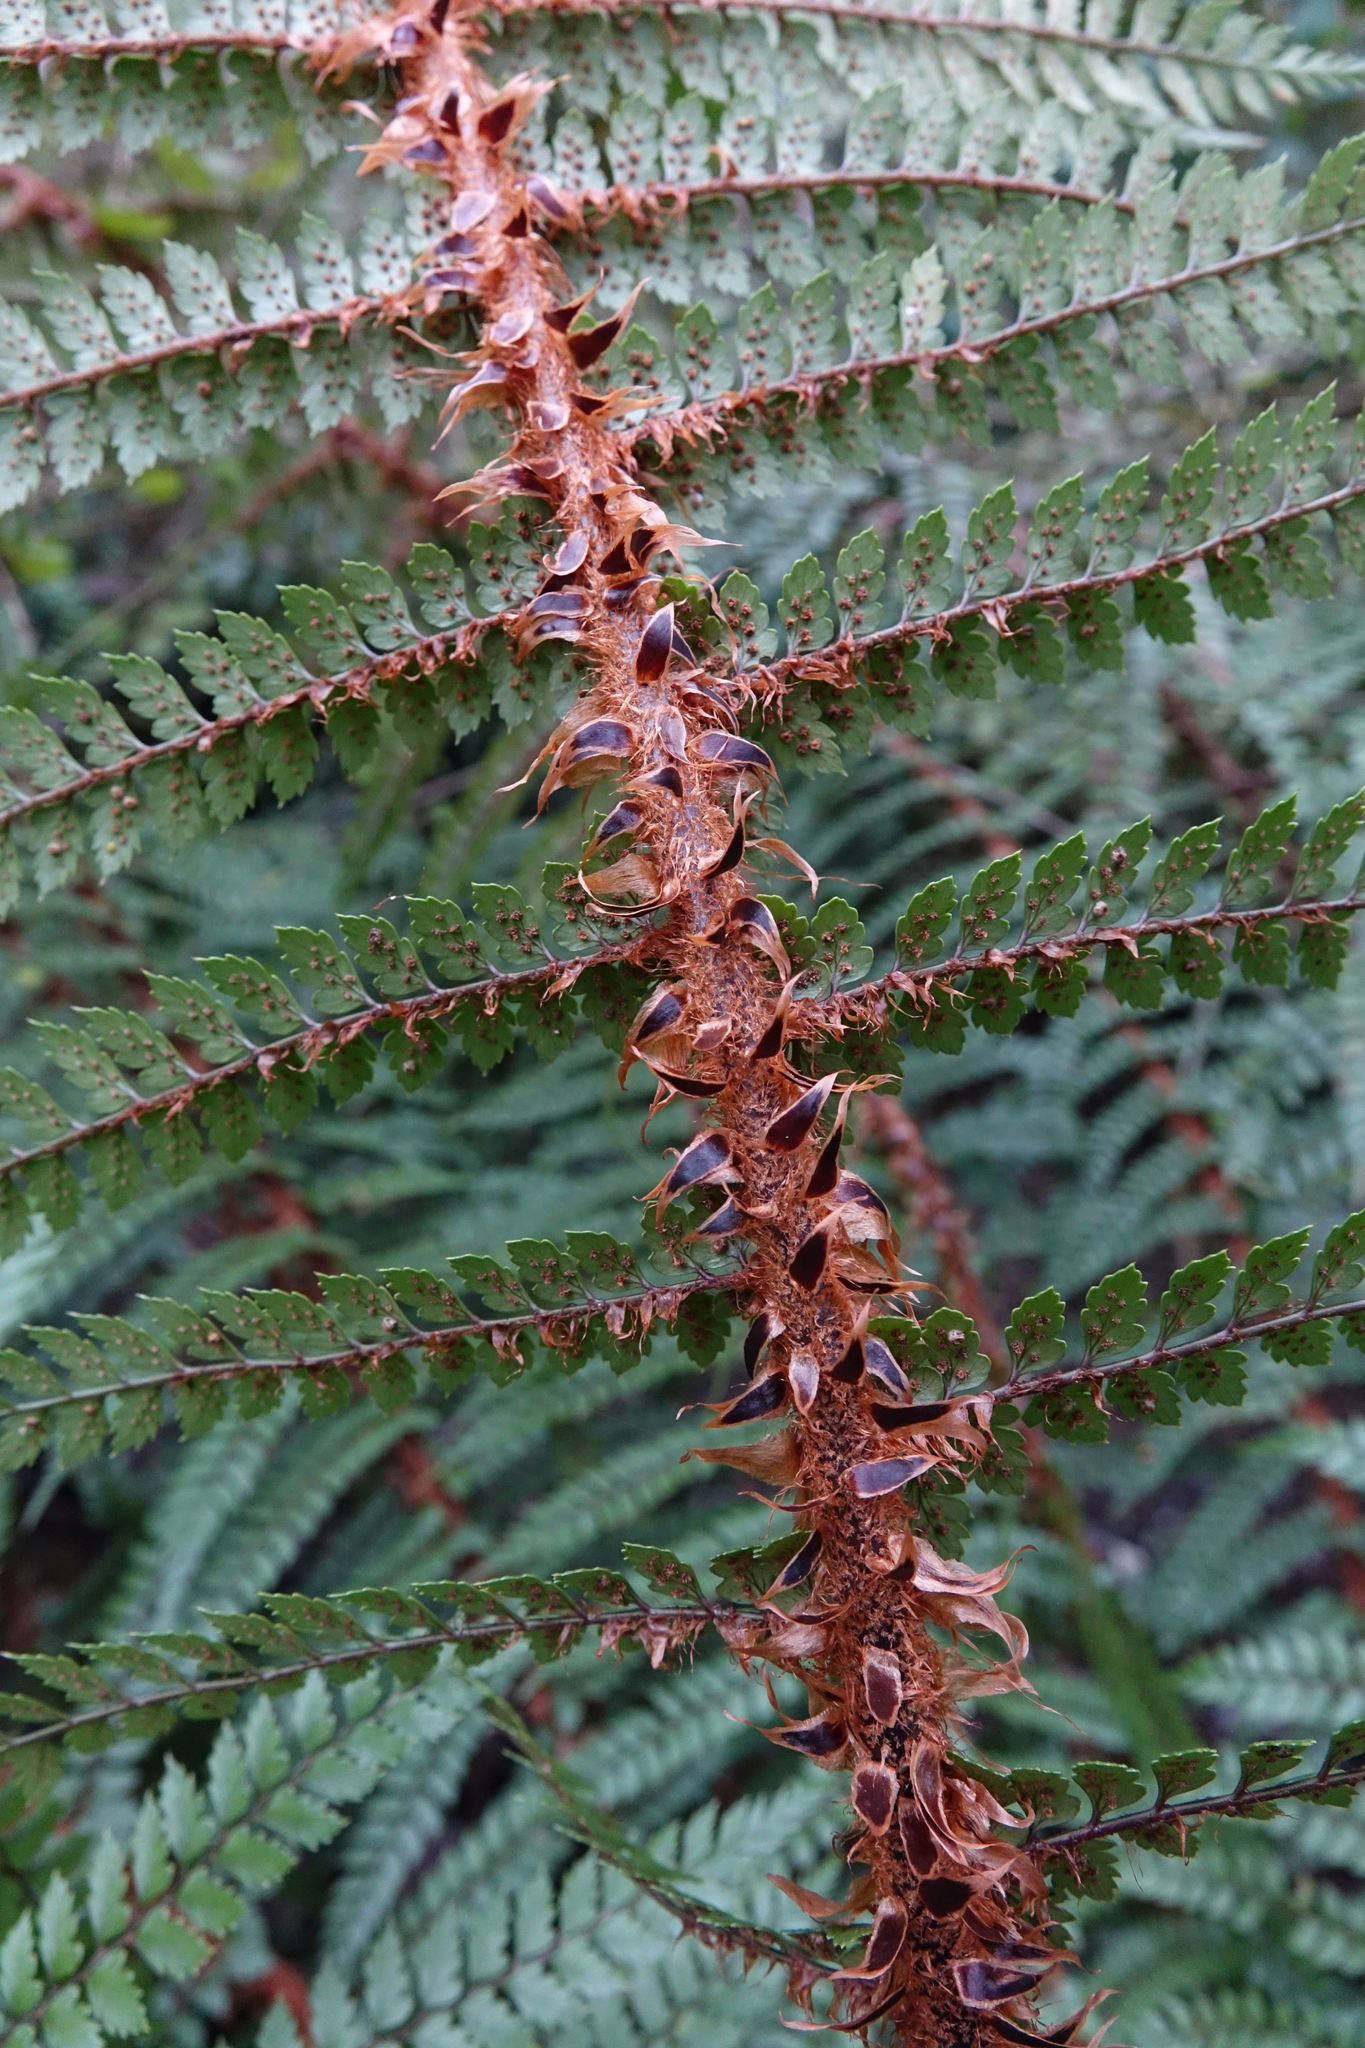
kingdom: Plantae
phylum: Tracheophyta
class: Polypodiopsida
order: Polypodiales
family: Dryopteridaceae
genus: Polystichum
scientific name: Polystichum vestitum
